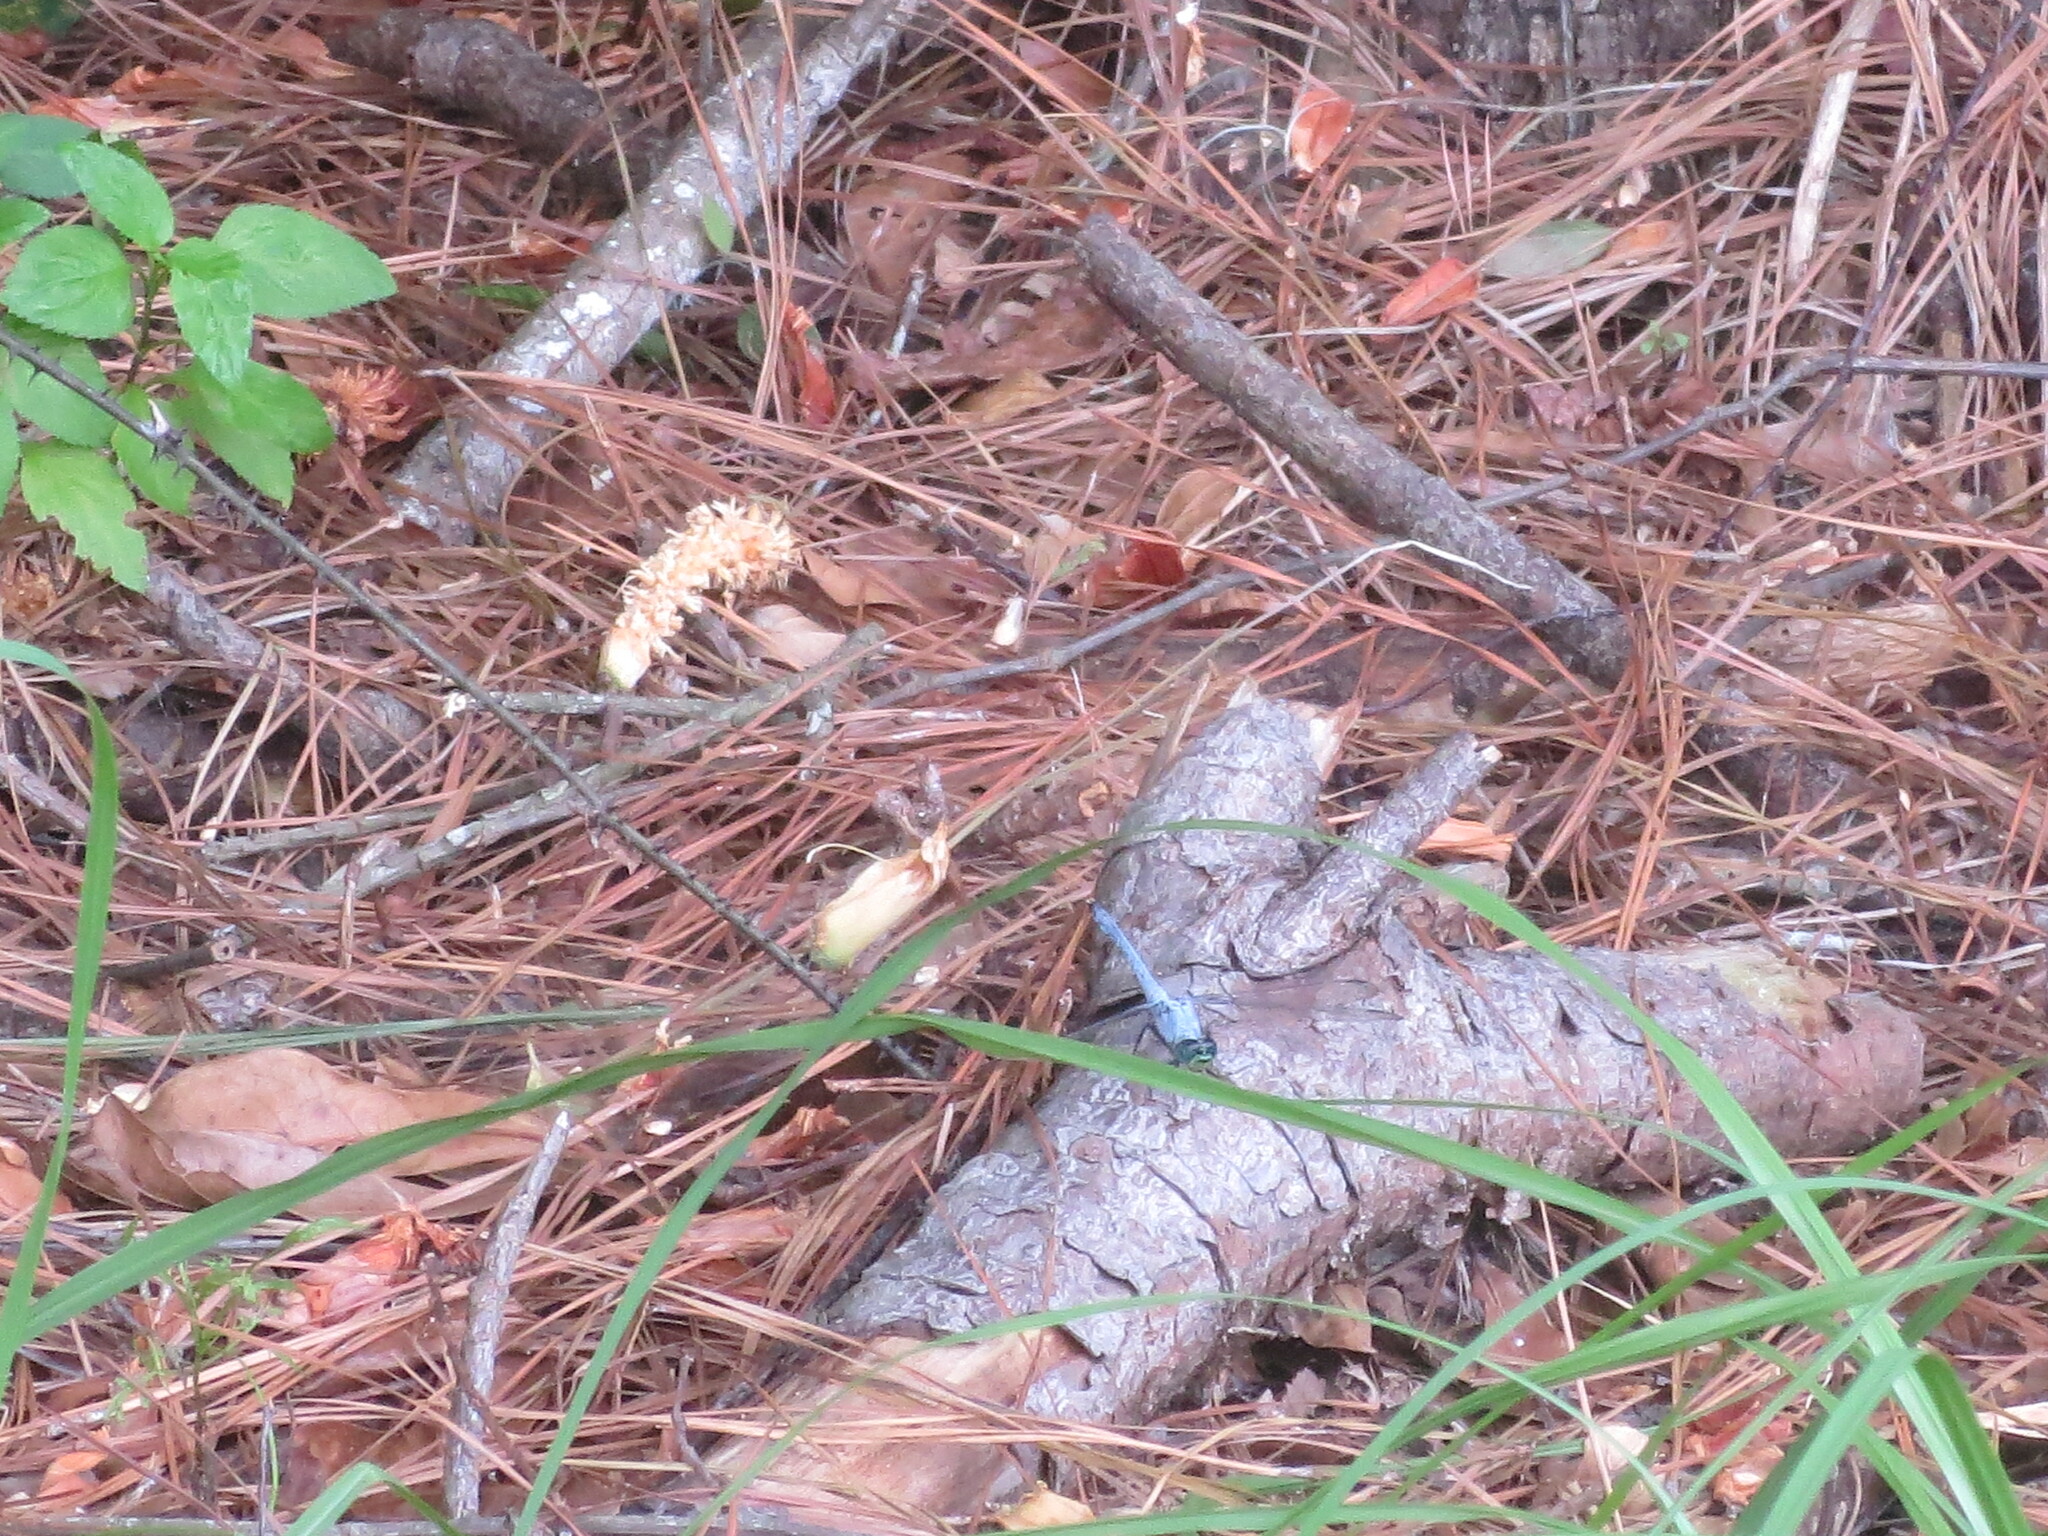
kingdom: Animalia
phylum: Arthropoda
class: Insecta
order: Odonata
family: Libellulidae
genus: Erythemis
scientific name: Erythemis simplicicollis
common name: Eastern pondhawk
